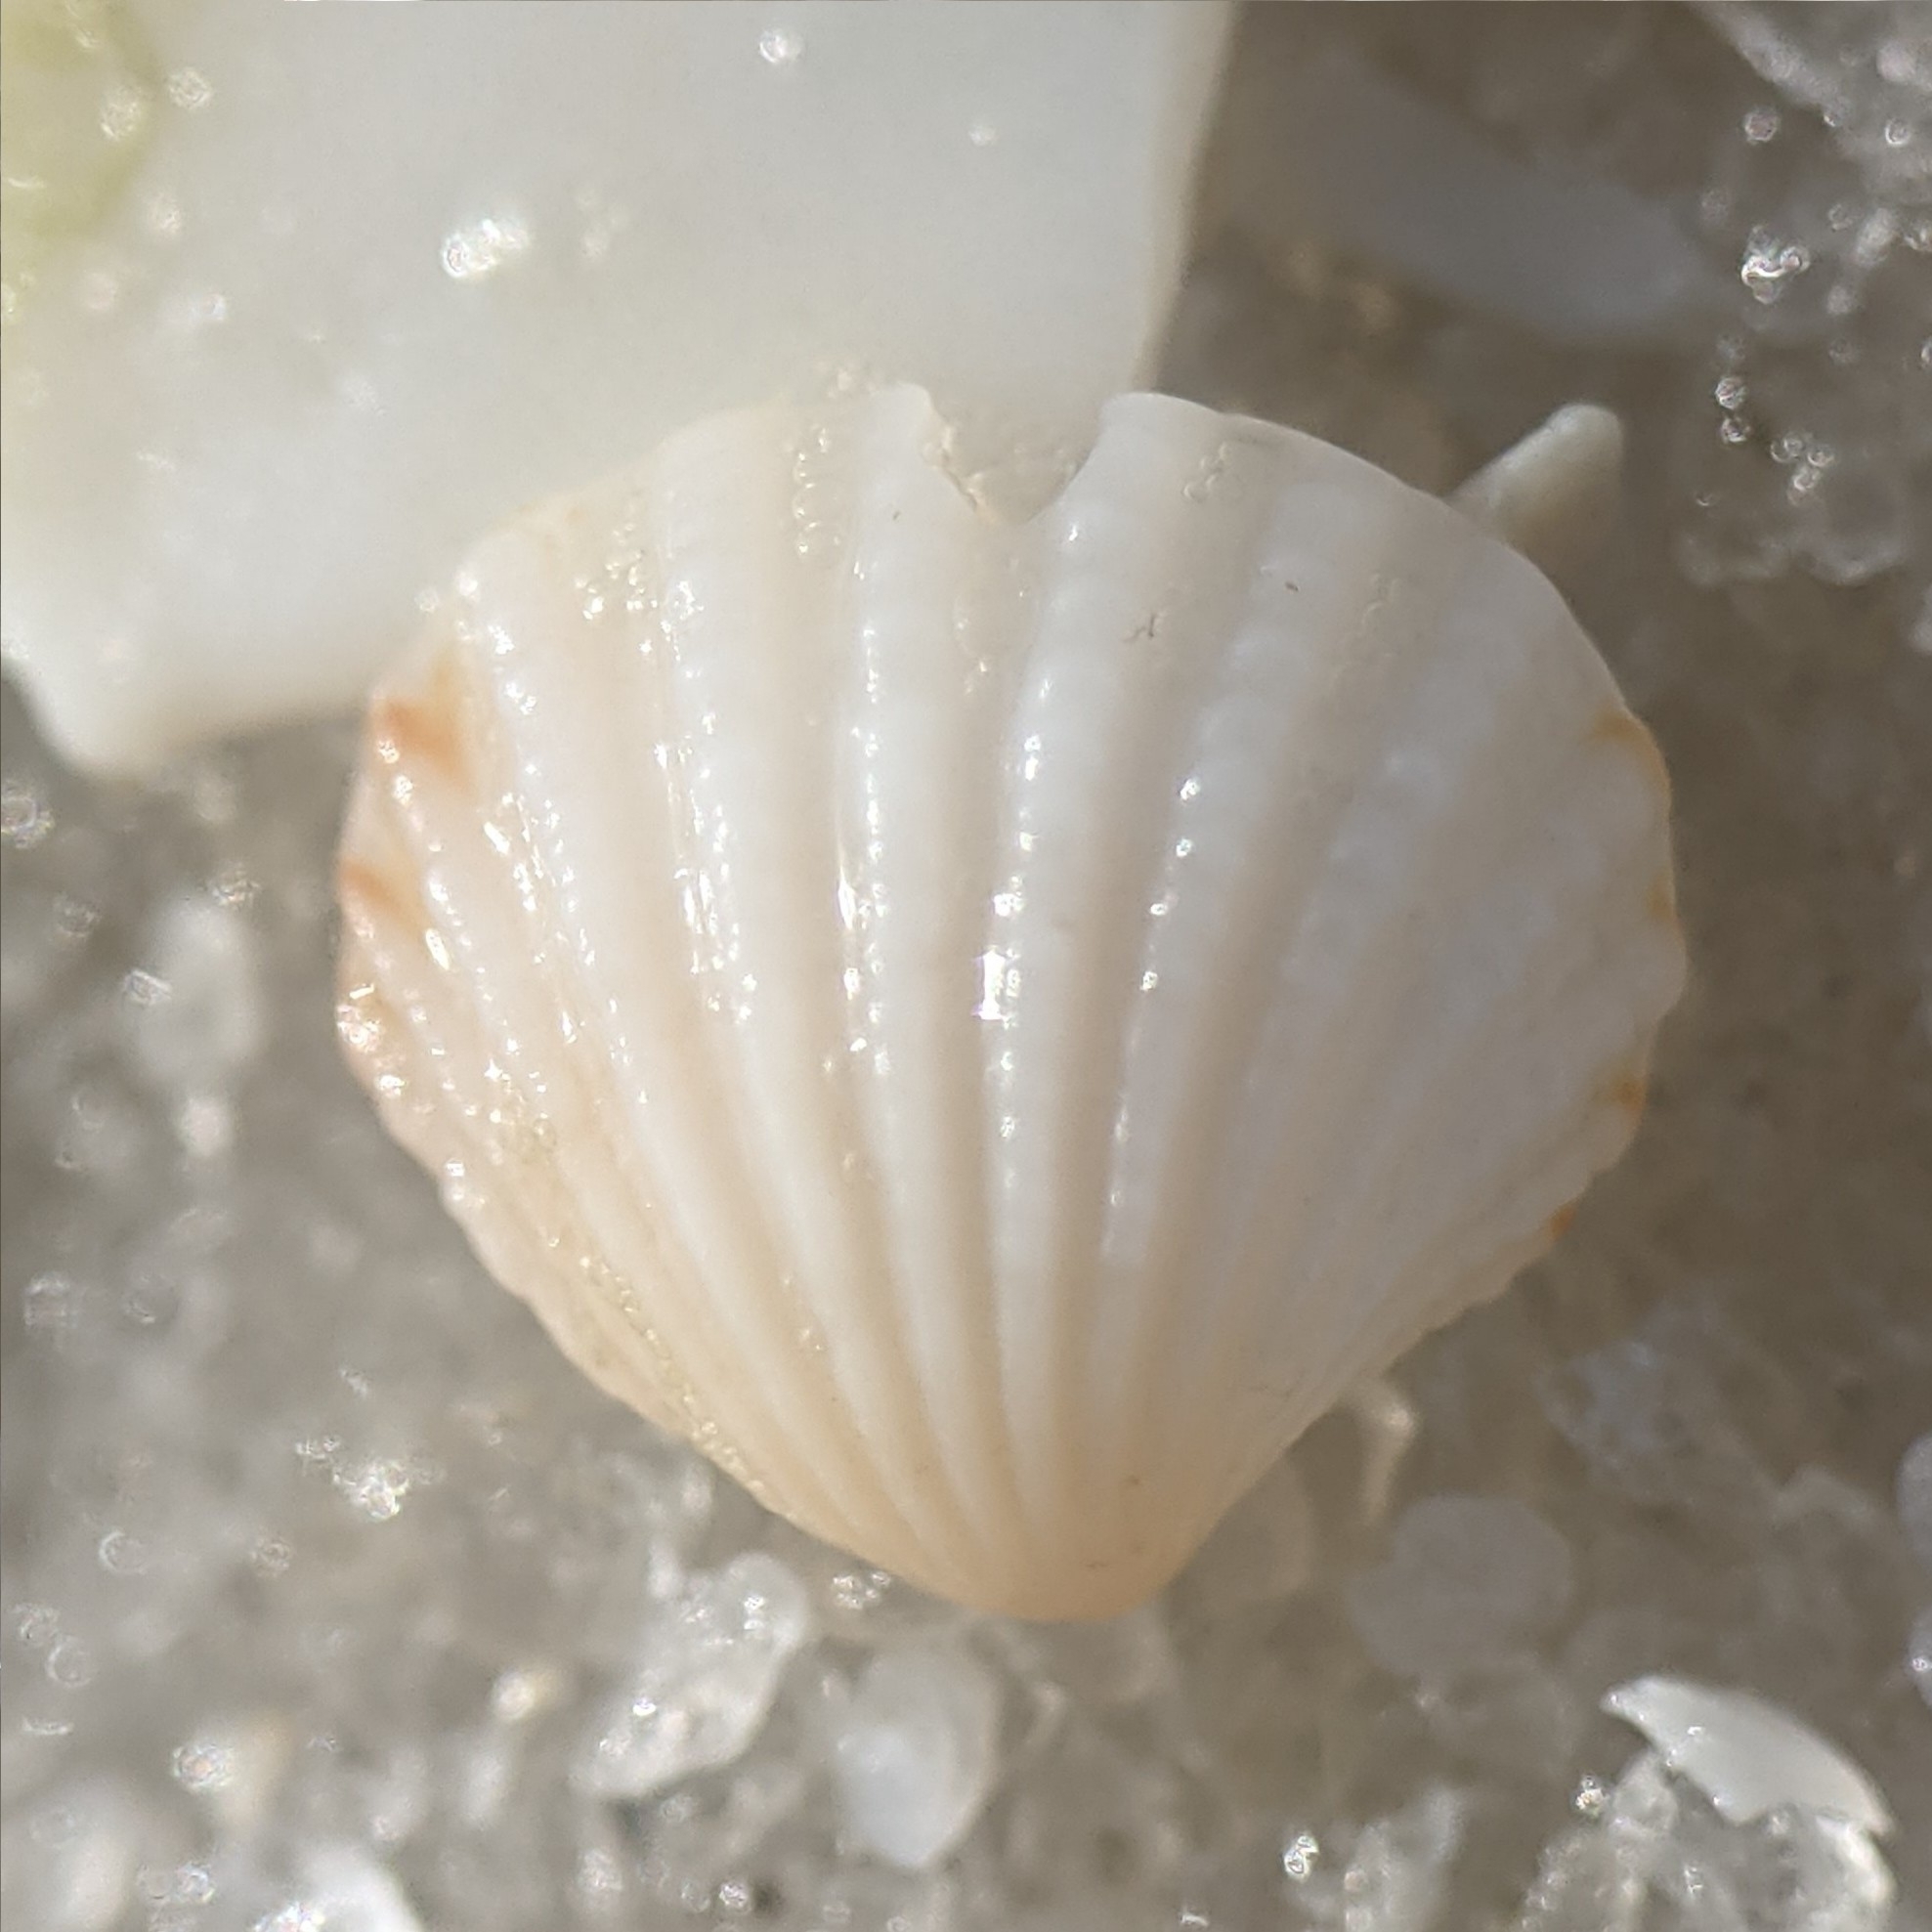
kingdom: Animalia
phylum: Mollusca
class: Bivalvia
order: Carditida
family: Carditidae
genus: Pleuromeris
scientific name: Pleuromeris tridentata
